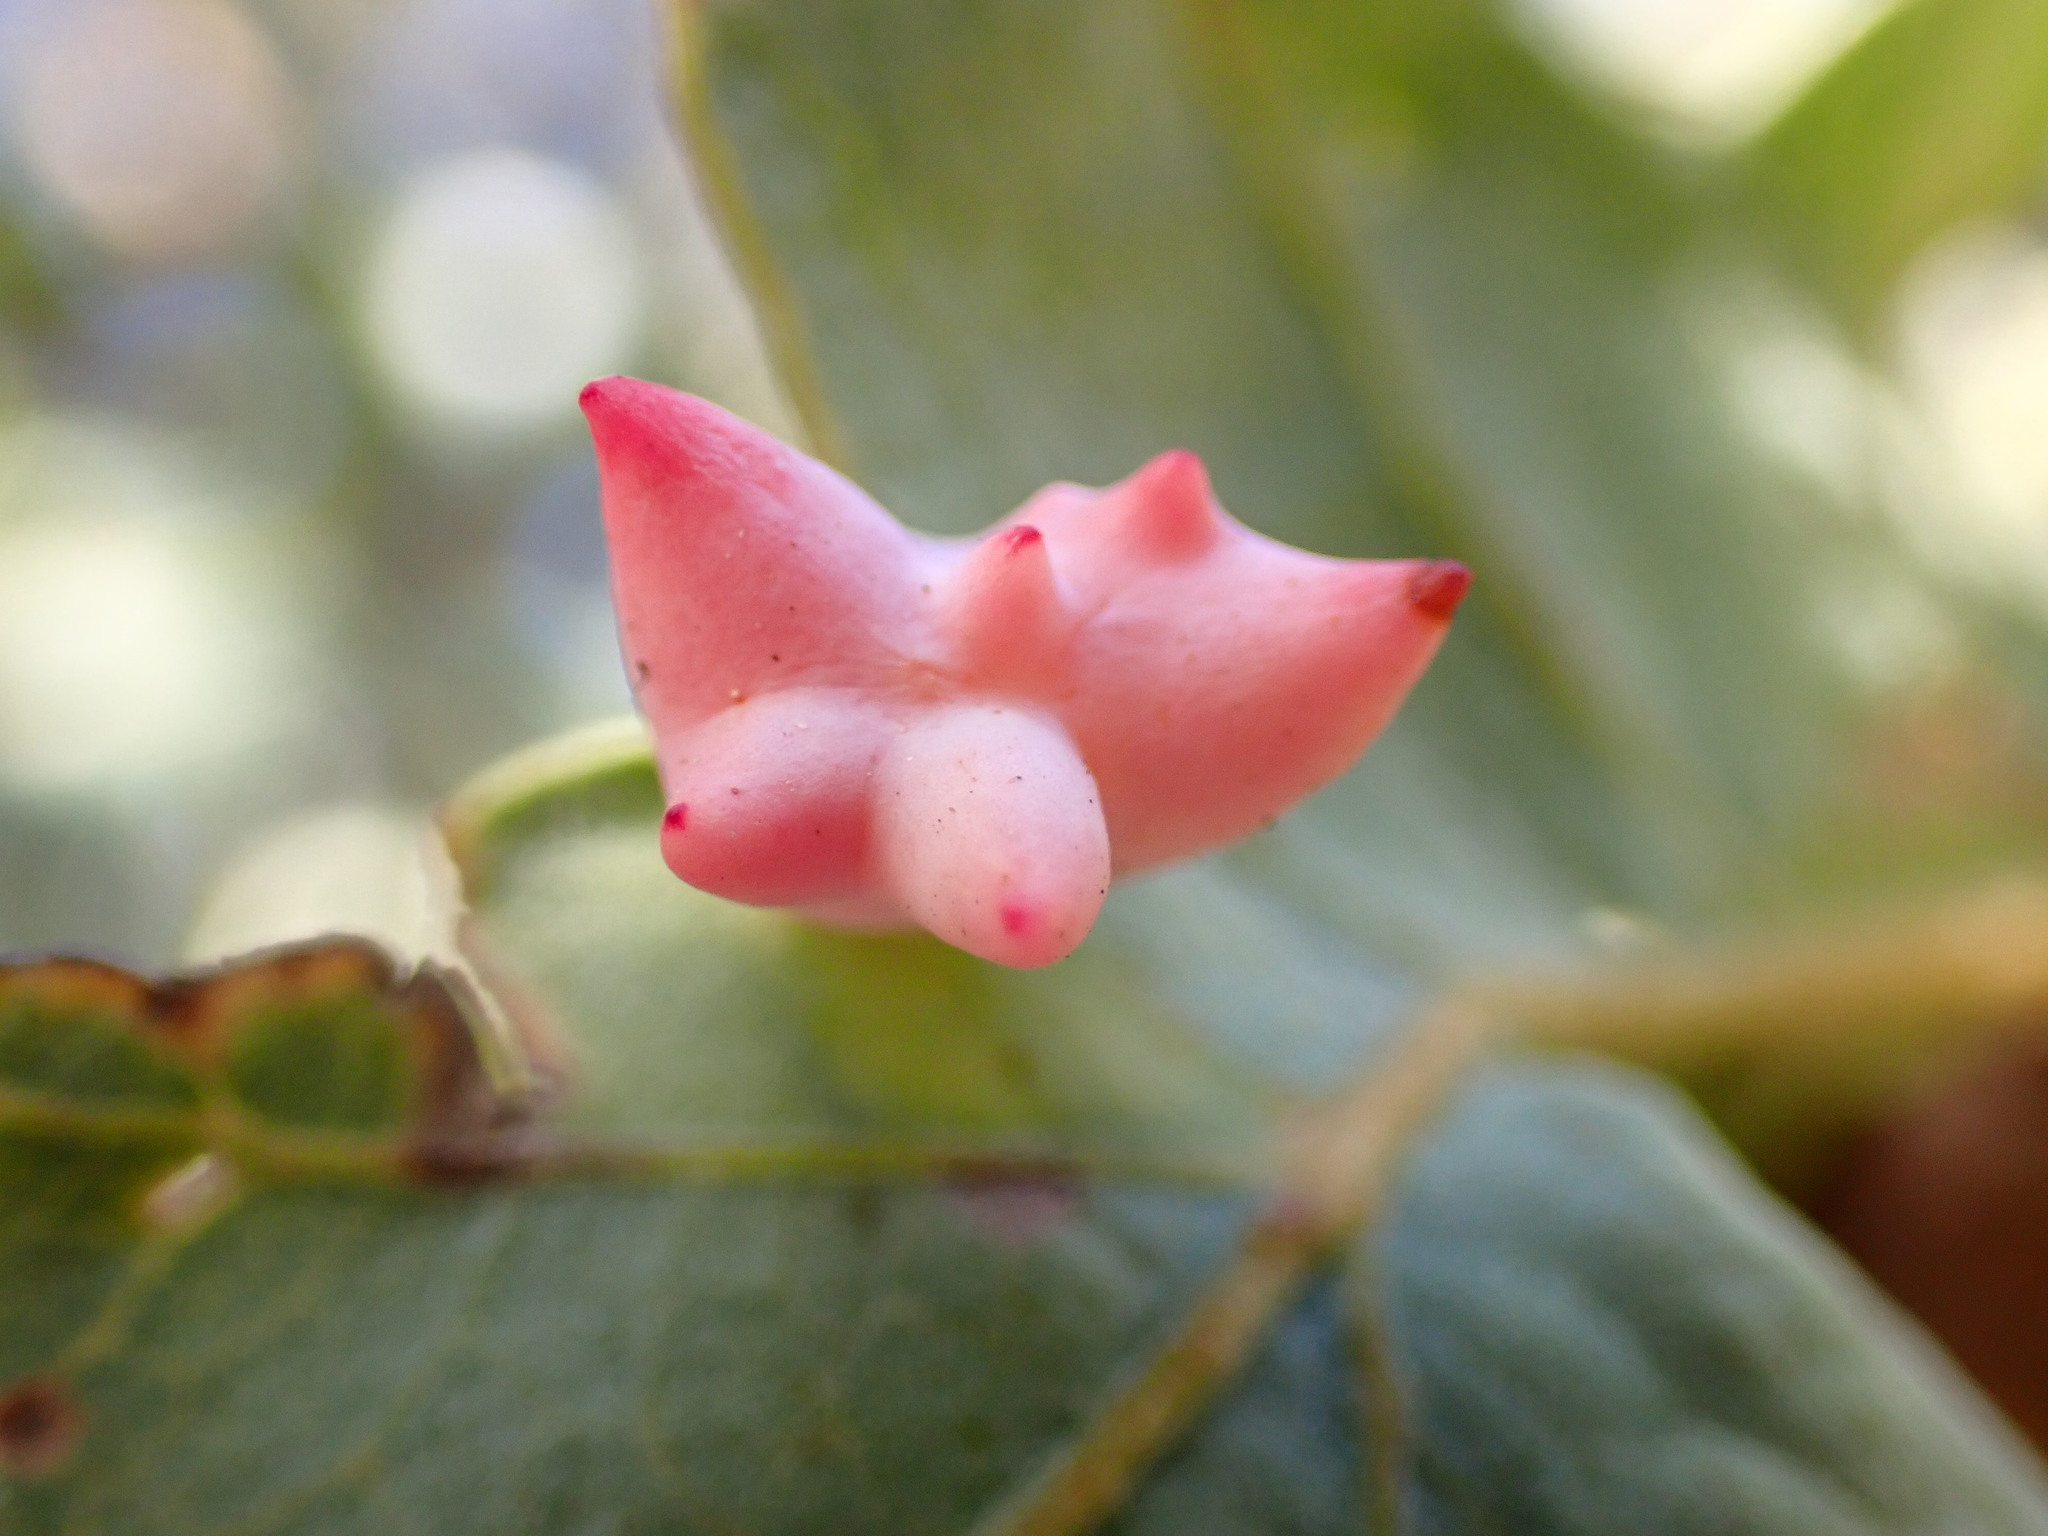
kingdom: Animalia
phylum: Arthropoda
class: Insecta
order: Hymenoptera
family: Cynipidae
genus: Cynips
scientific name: Cynips douglasi
